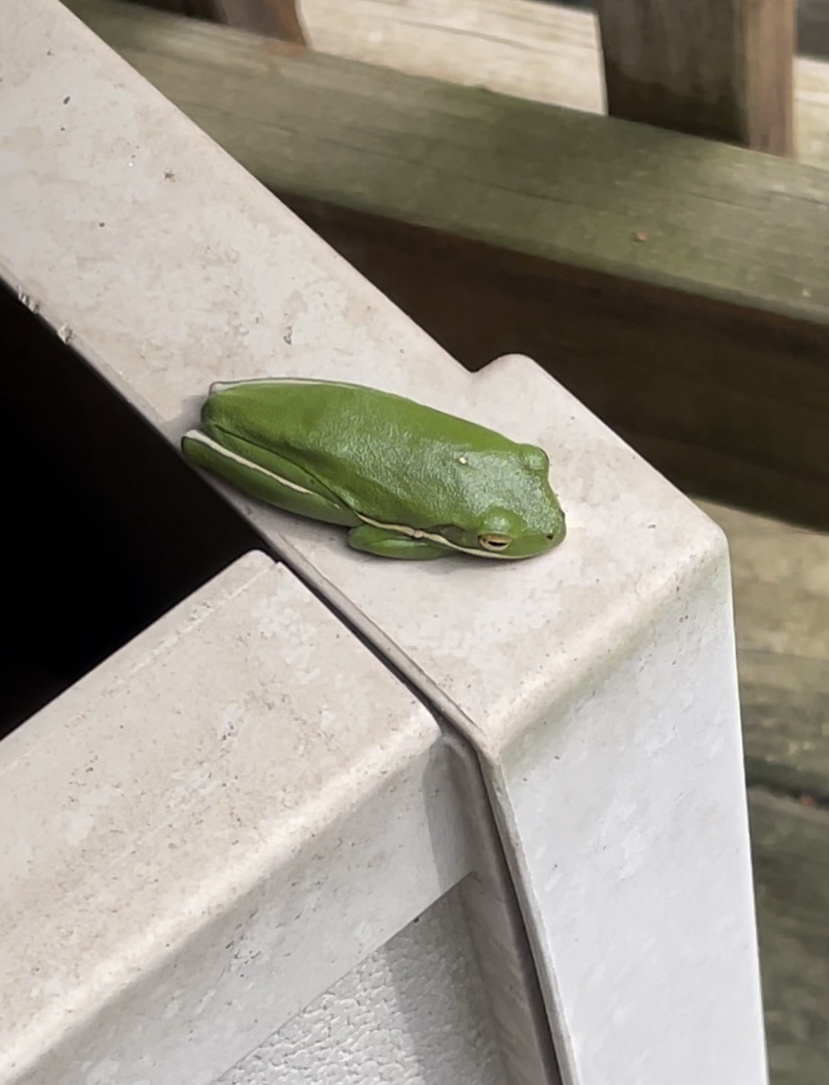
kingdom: Animalia
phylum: Chordata
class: Amphibia
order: Anura
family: Hylidae
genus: Dryophytes
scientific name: Dryophytes cinereus
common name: Green treefrog
